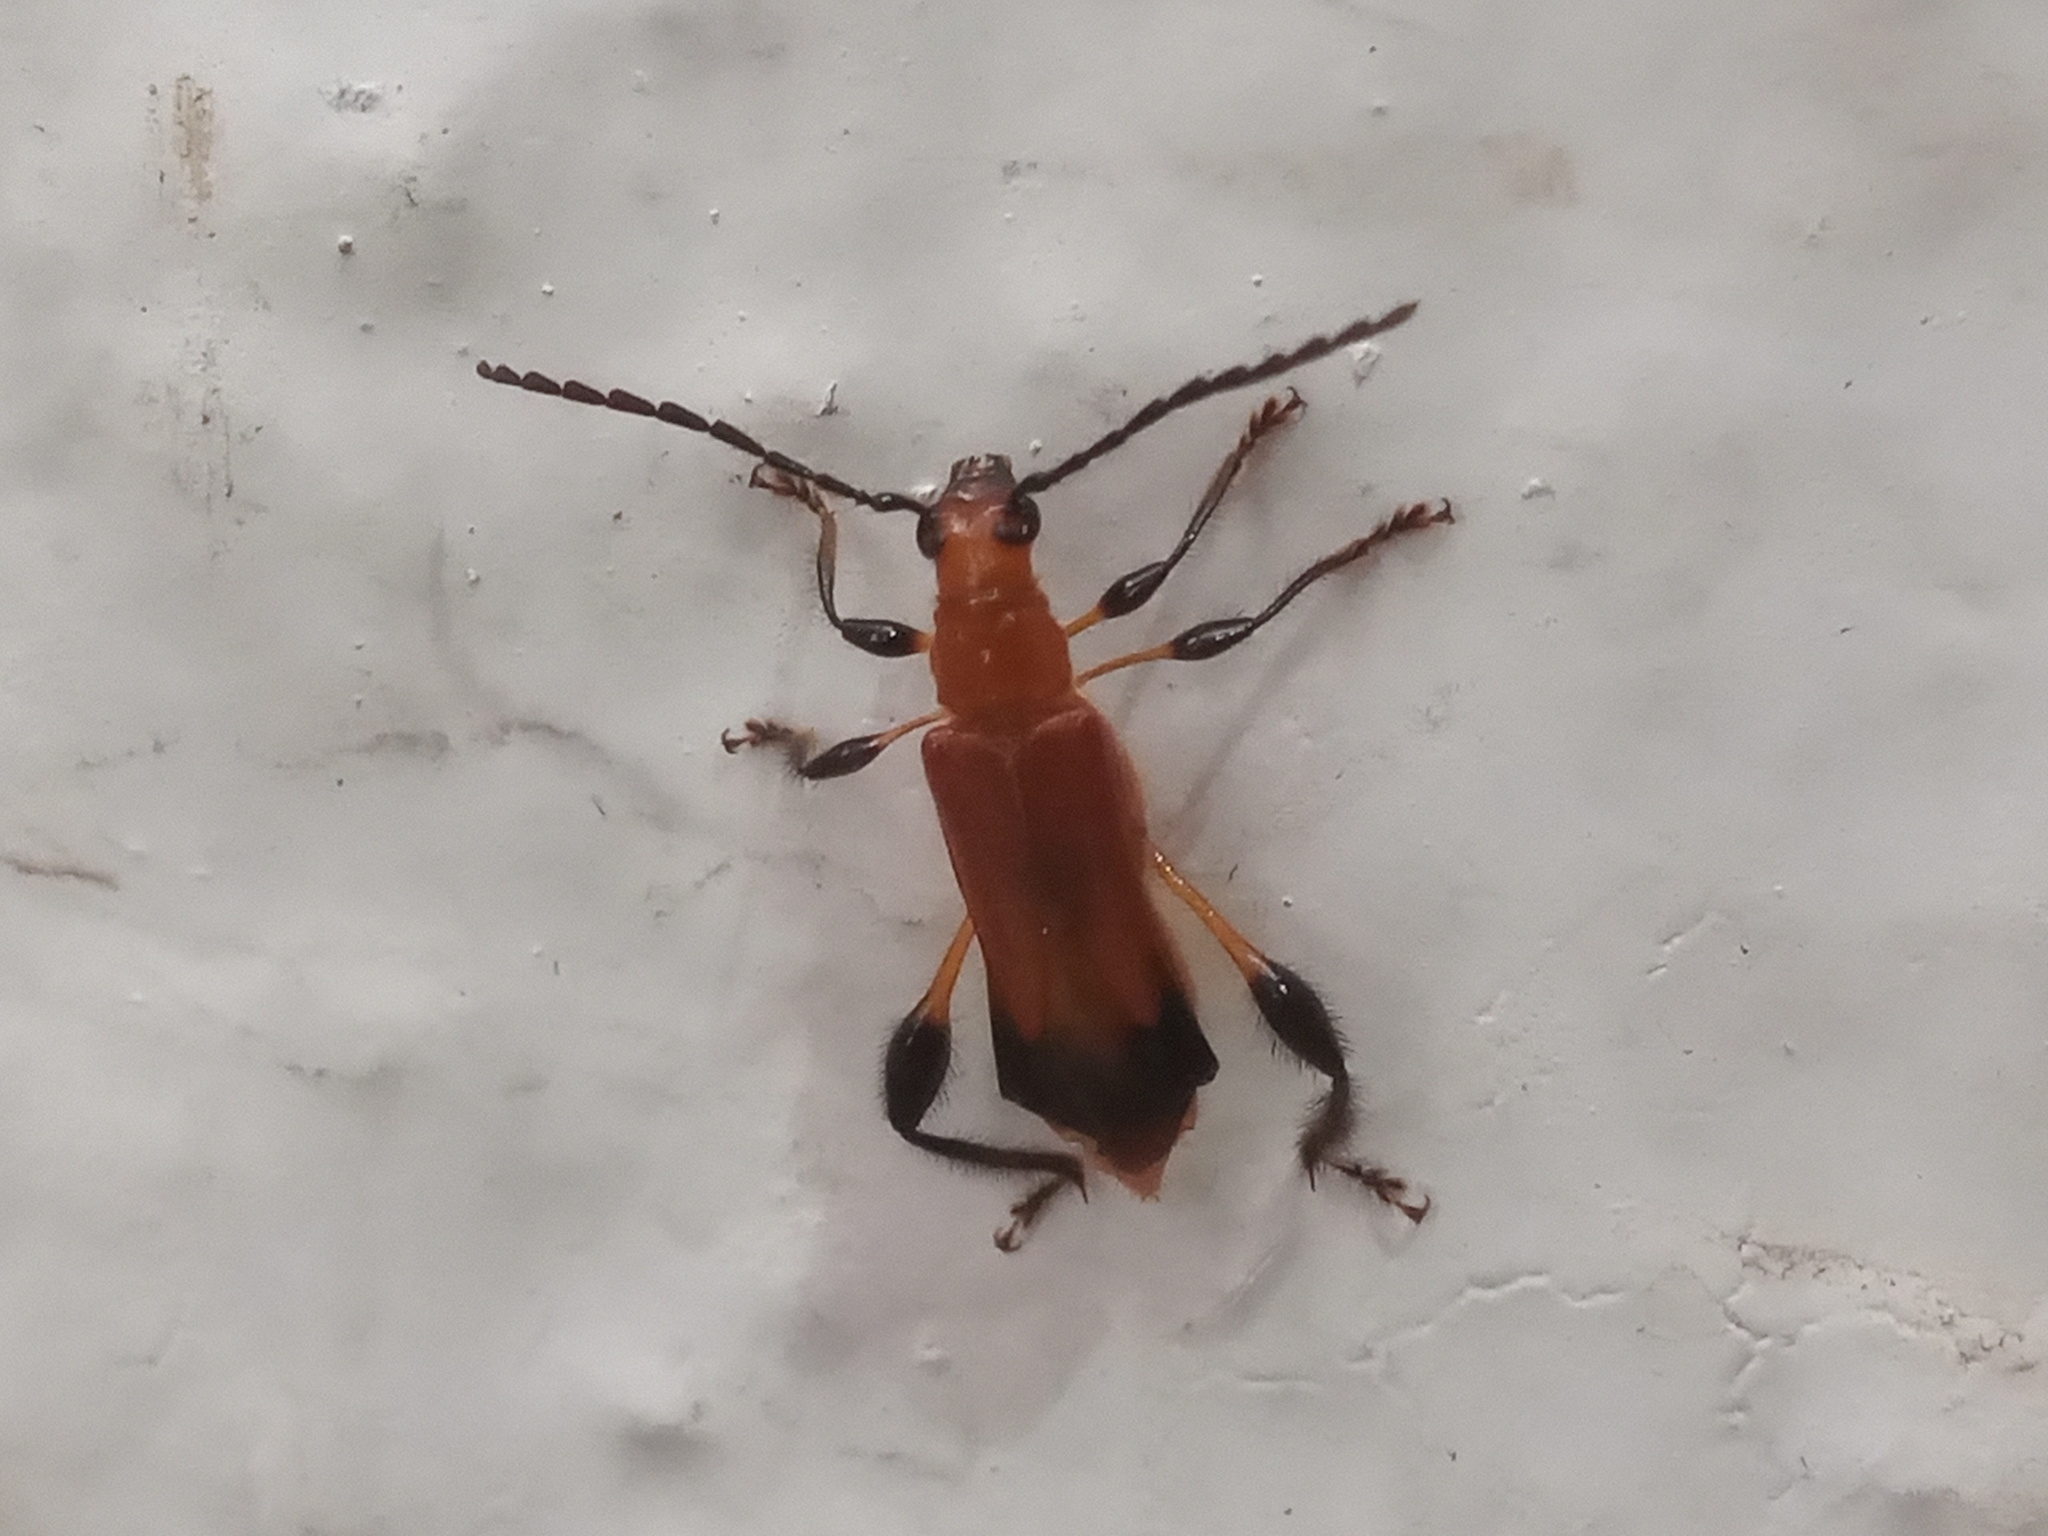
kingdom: Animalia
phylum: Arthropoda
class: Insecta
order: Coleoptera
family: Cerambycidae
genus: Oxycoleus
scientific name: Oxycoleus clavipes
